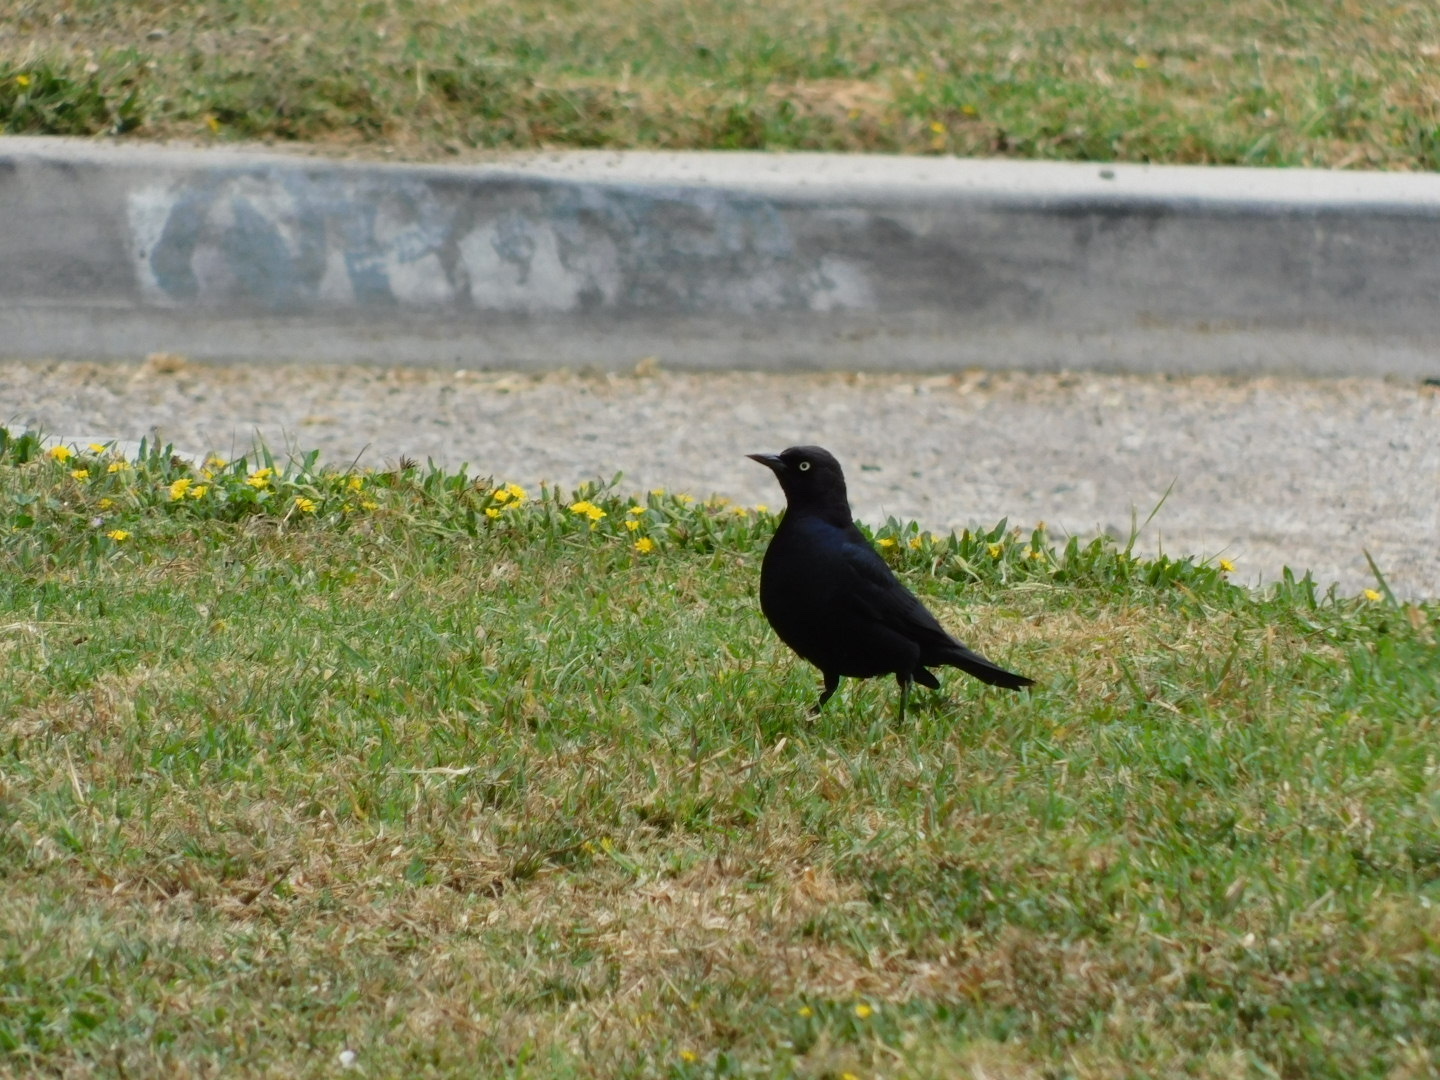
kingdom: Animalia
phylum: Chordata
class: Aves
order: Passeriformes
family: Icteridae
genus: Euphagus
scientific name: Euphagus cyanocephalus
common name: Brewer's blackbird
